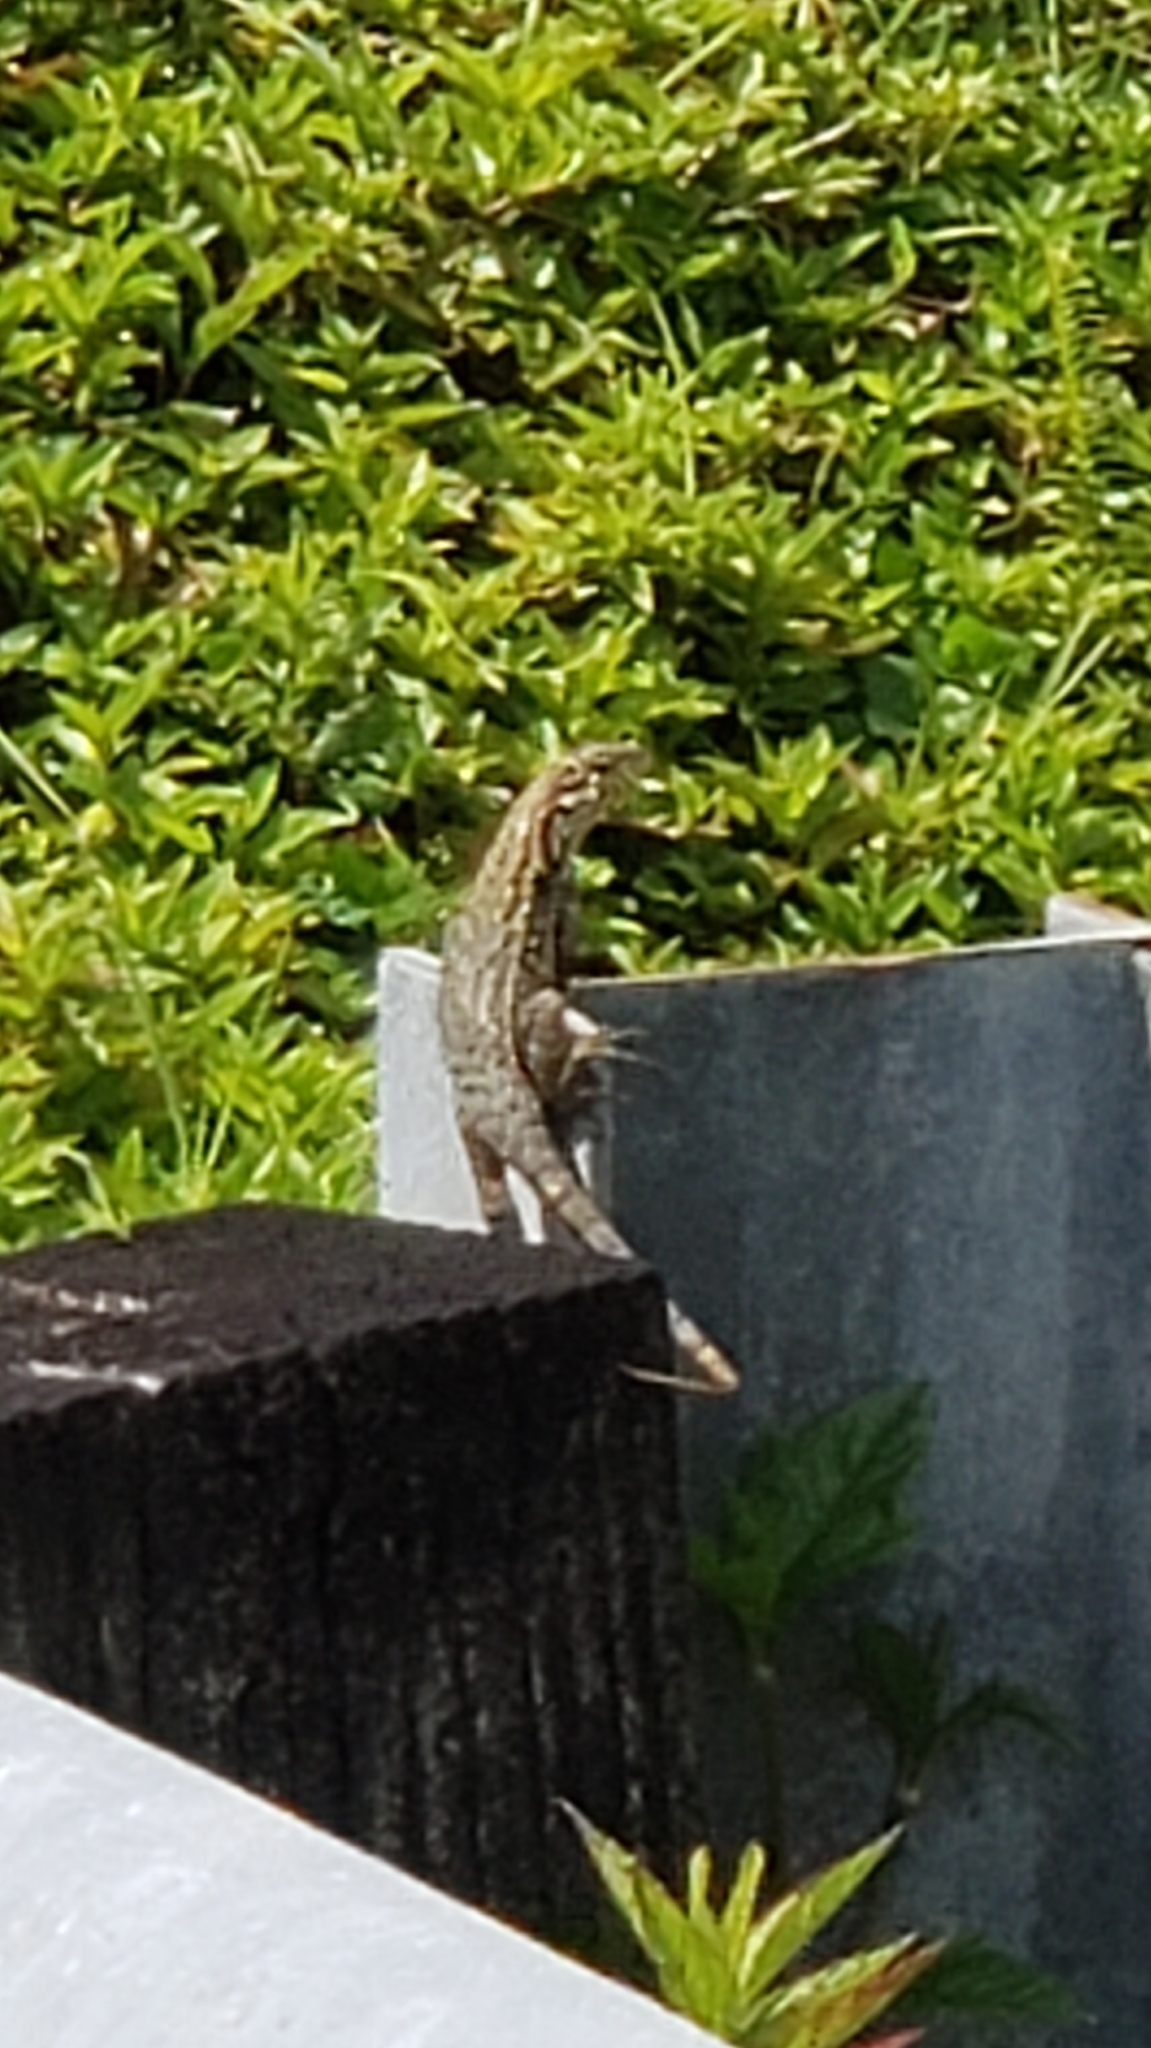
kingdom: Animalia
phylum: Chordata
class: Squamata
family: Leiocephalidae
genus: Leiocephalus
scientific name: Leiocephalus carinatus
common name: Northern curly-tailed lizard
